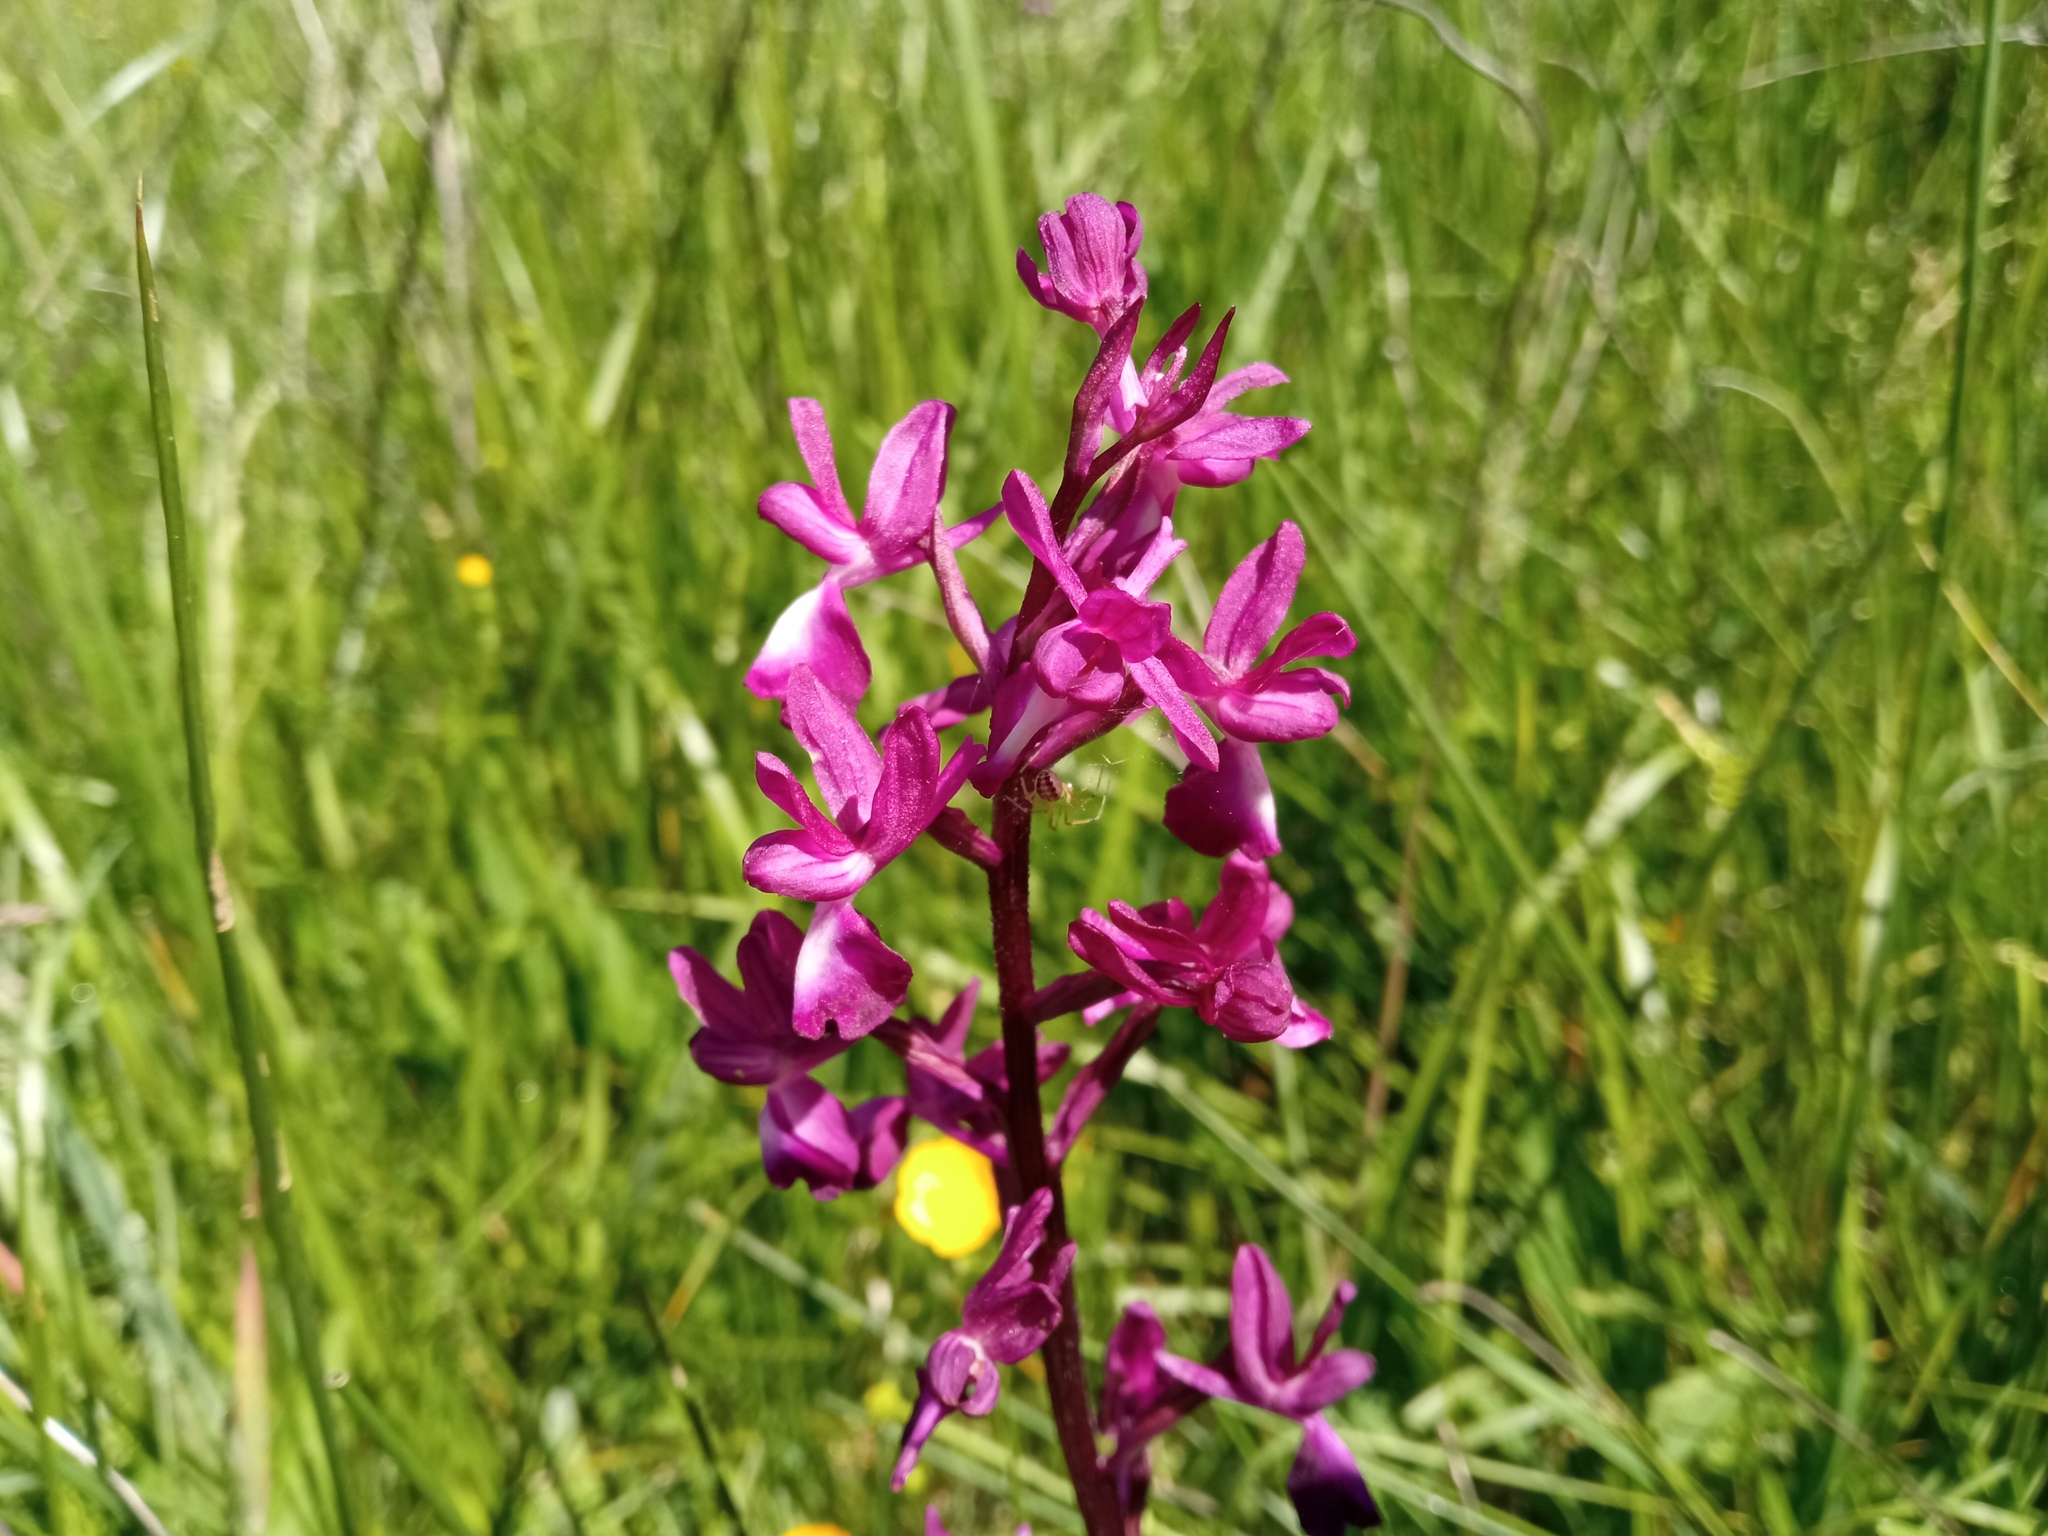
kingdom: Plantae
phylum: Tracheophyta
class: Liliopsida
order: Asparagales
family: Orchidaceae
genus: Anacamptis
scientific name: Anacamptis laxiflora
